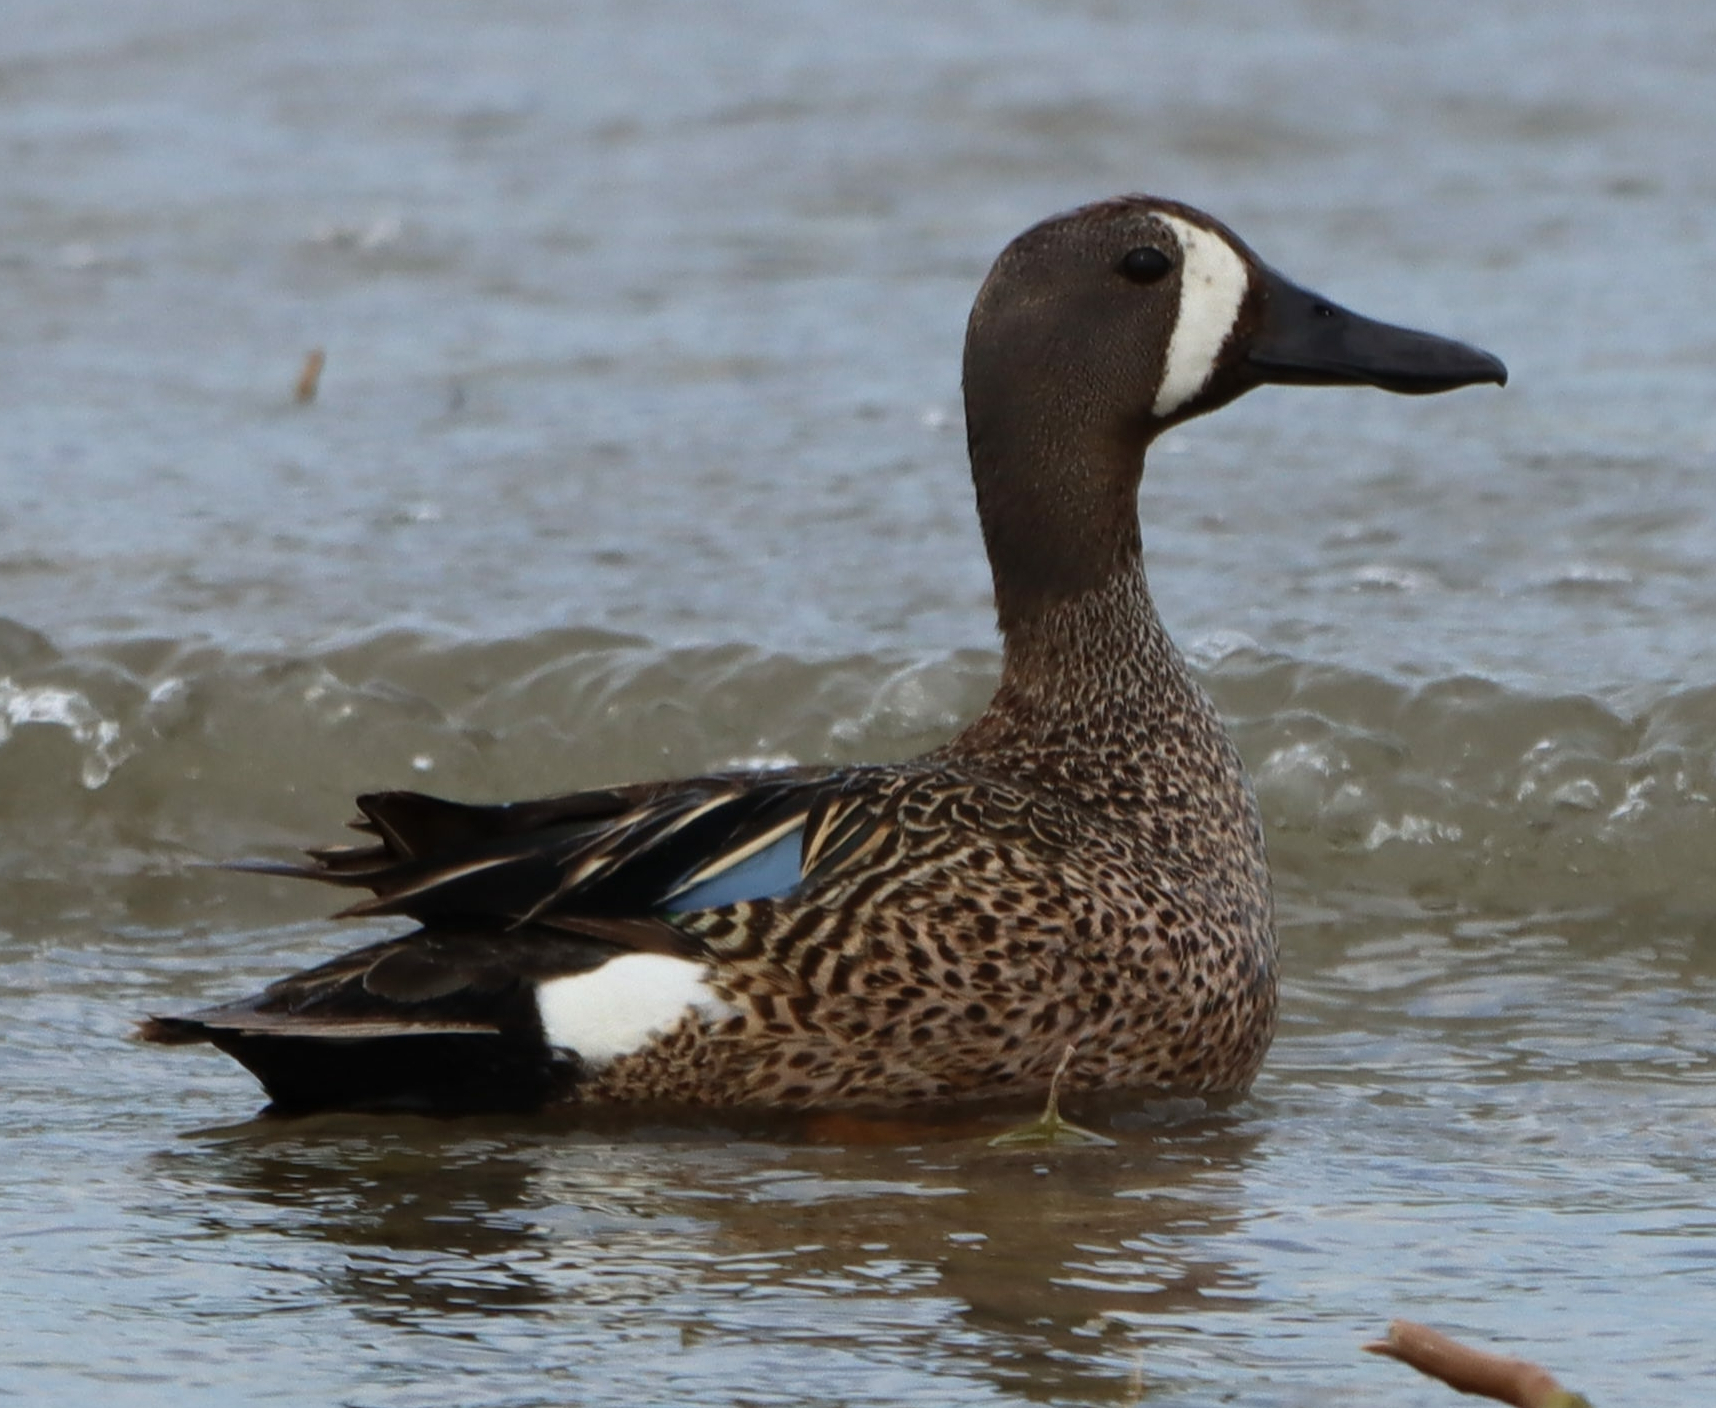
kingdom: Animalia
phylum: Chordata
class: Aves
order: Anseriformes
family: Anatidae
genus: Spatula
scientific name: Spatula discors
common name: Blue-winged teal
